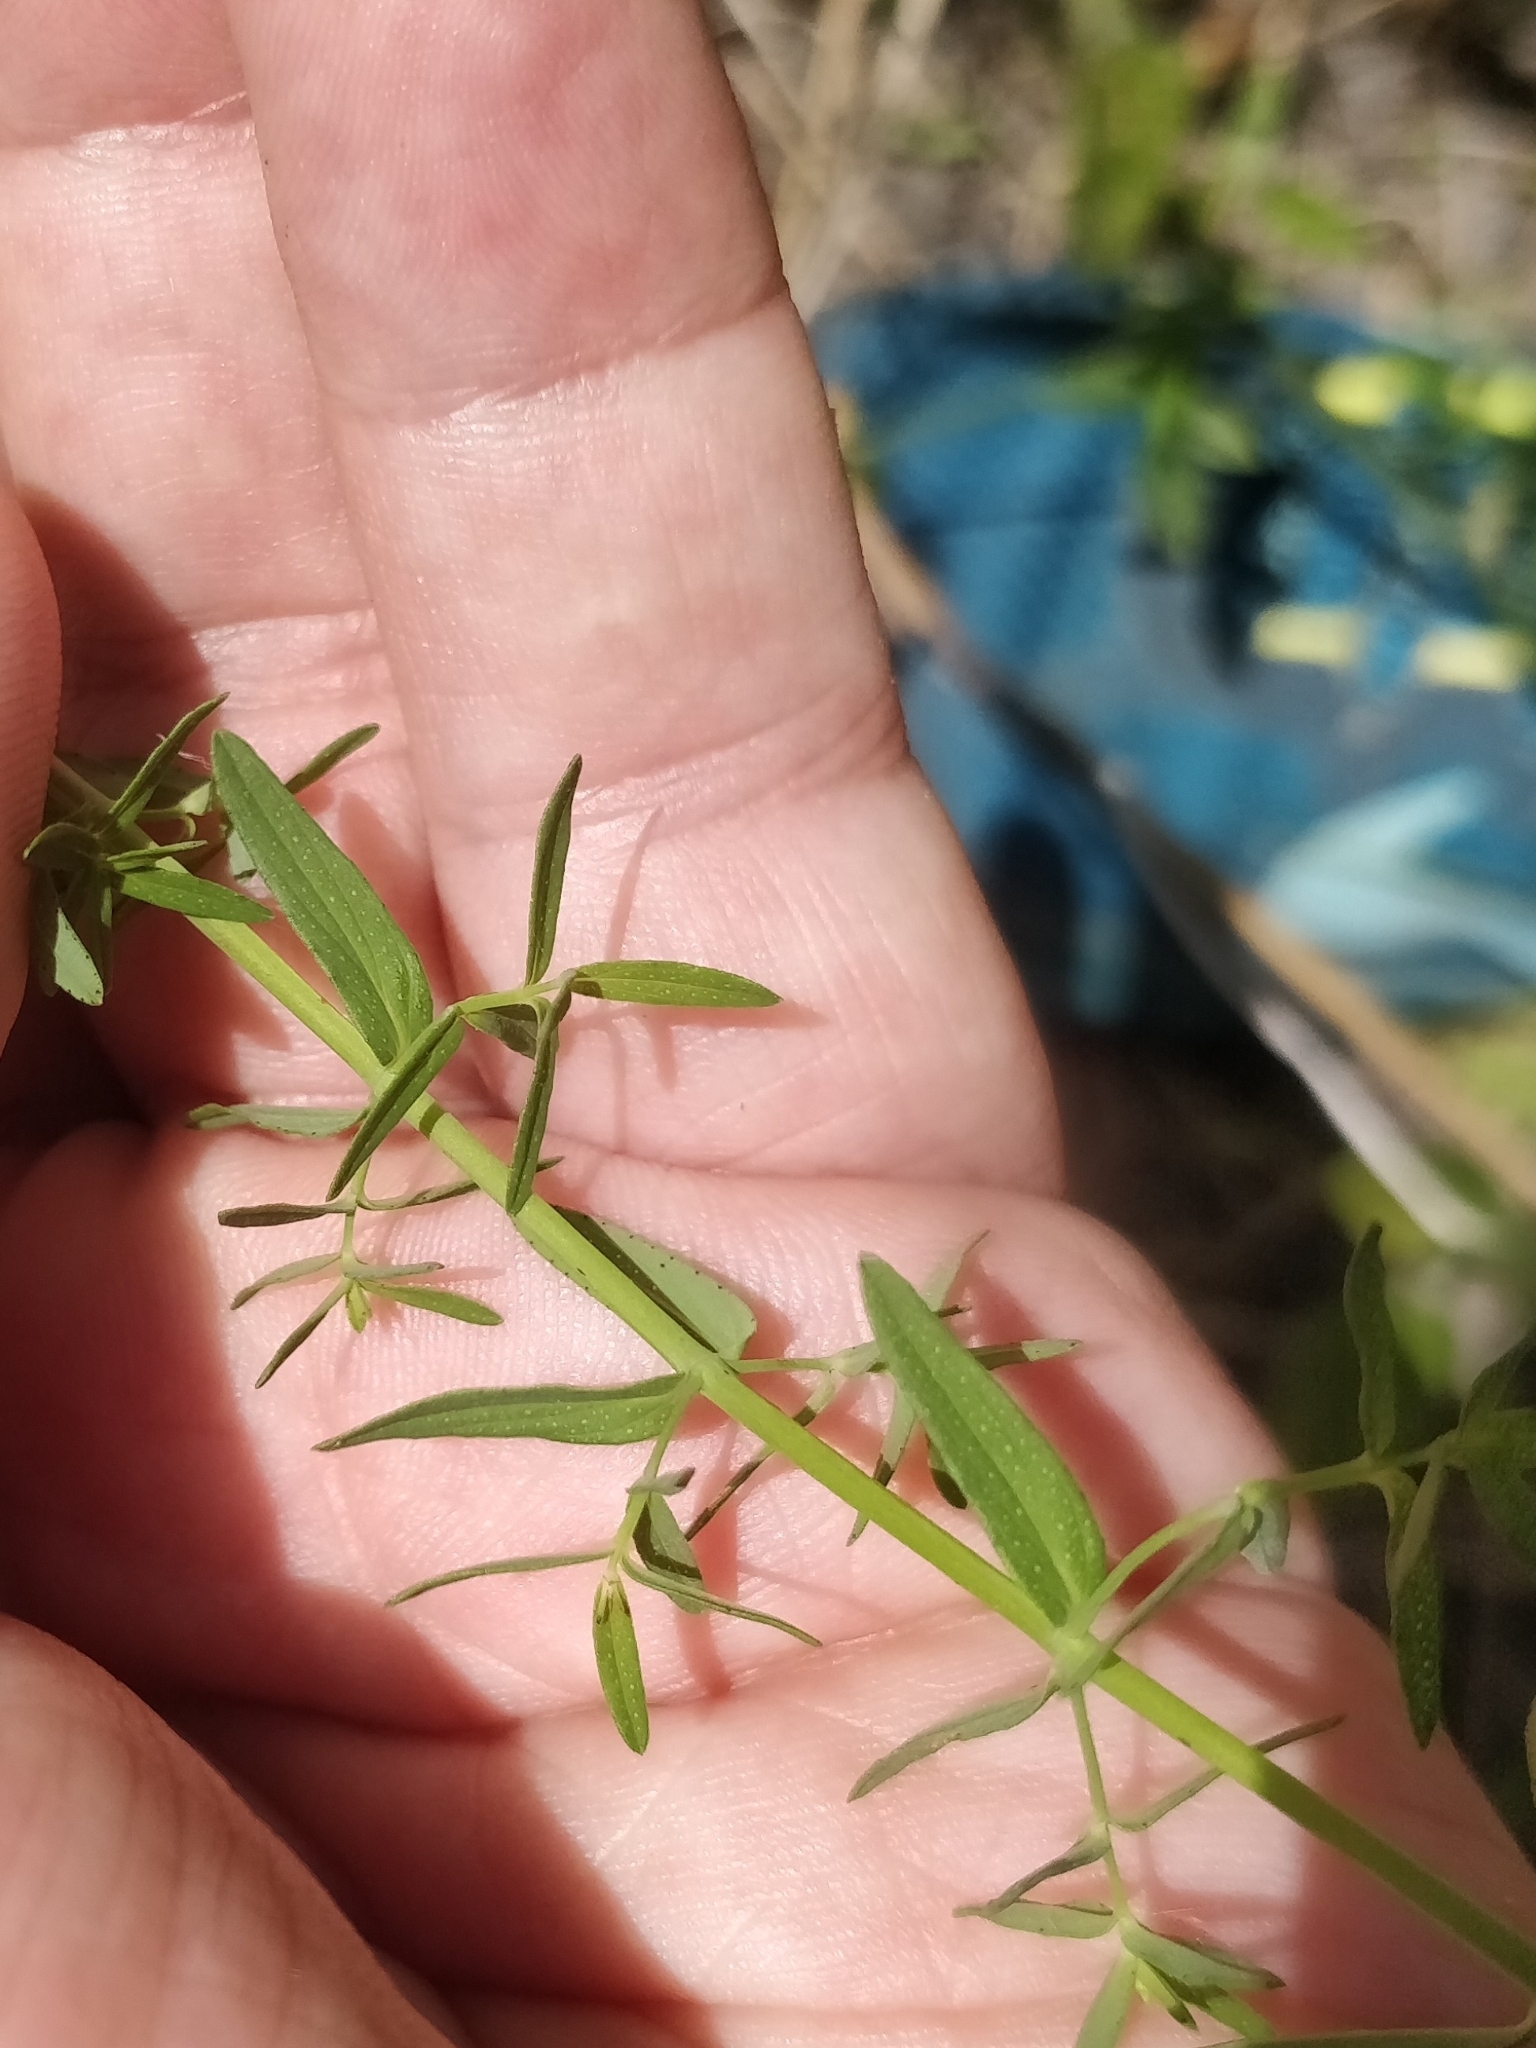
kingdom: Plantae
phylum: Tracheophyta
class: Magnoliopsida
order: Malpighiales
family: Hypericaceae
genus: Hypericum
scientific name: Hypericum perforatum
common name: Common st. johnswort
